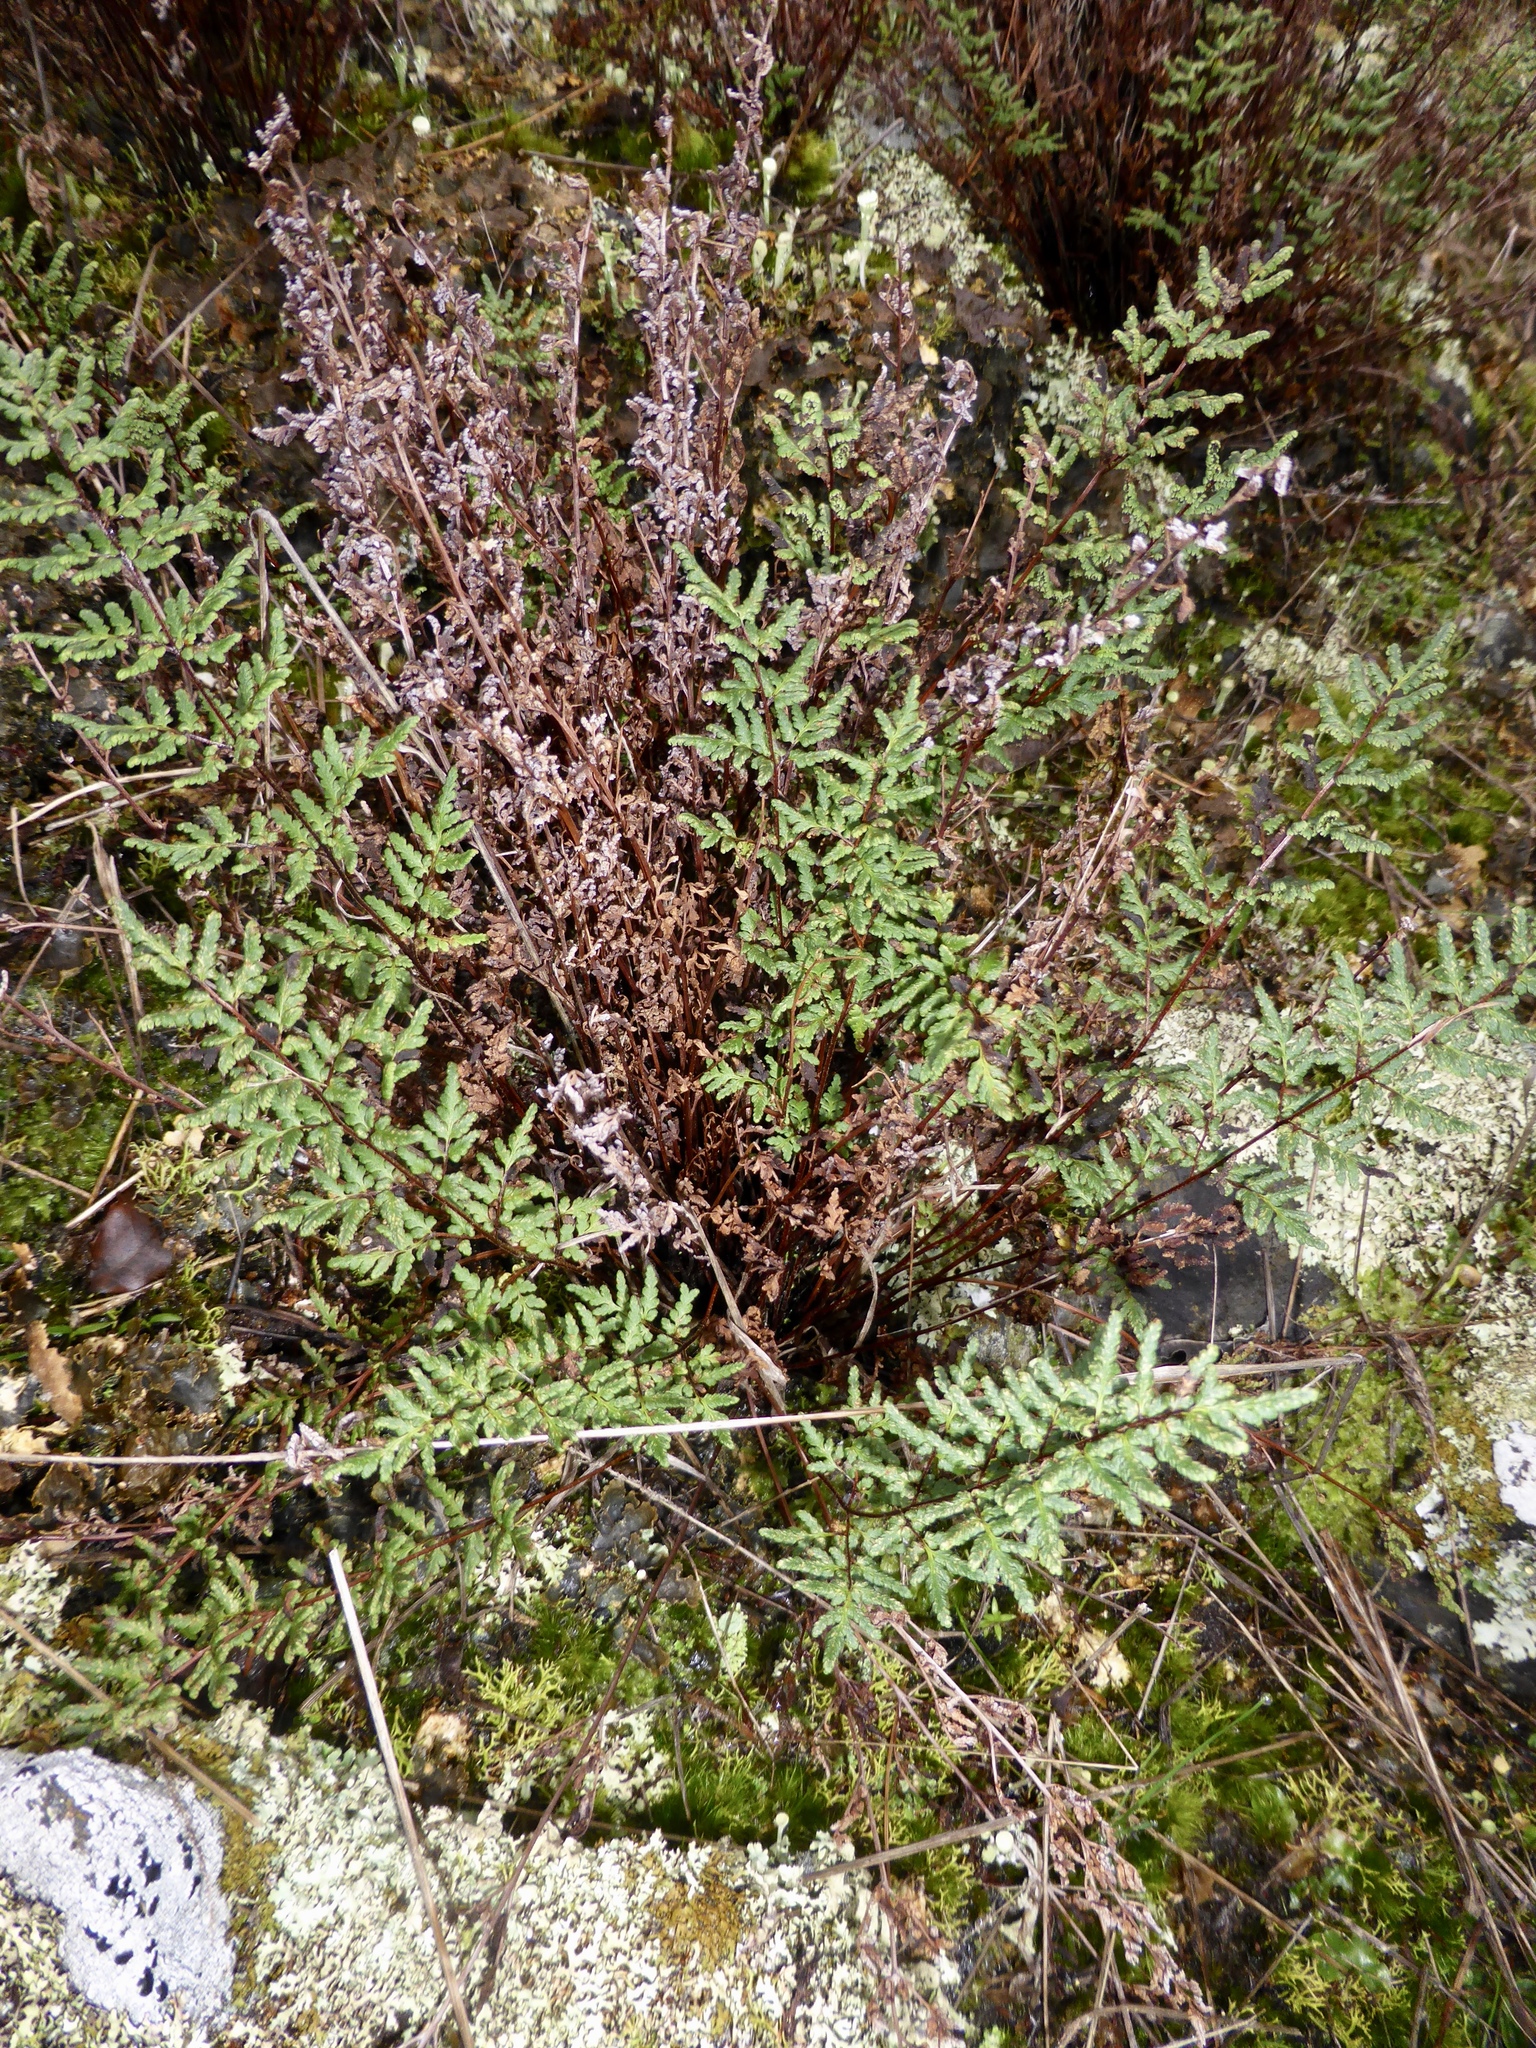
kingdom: Plantae
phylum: Tracheophyta
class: Polypodiopsida
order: Polypodiales
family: Pteridaceae
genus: Cheilanthes
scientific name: Cheilanthes sieberi
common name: Mulga fern
